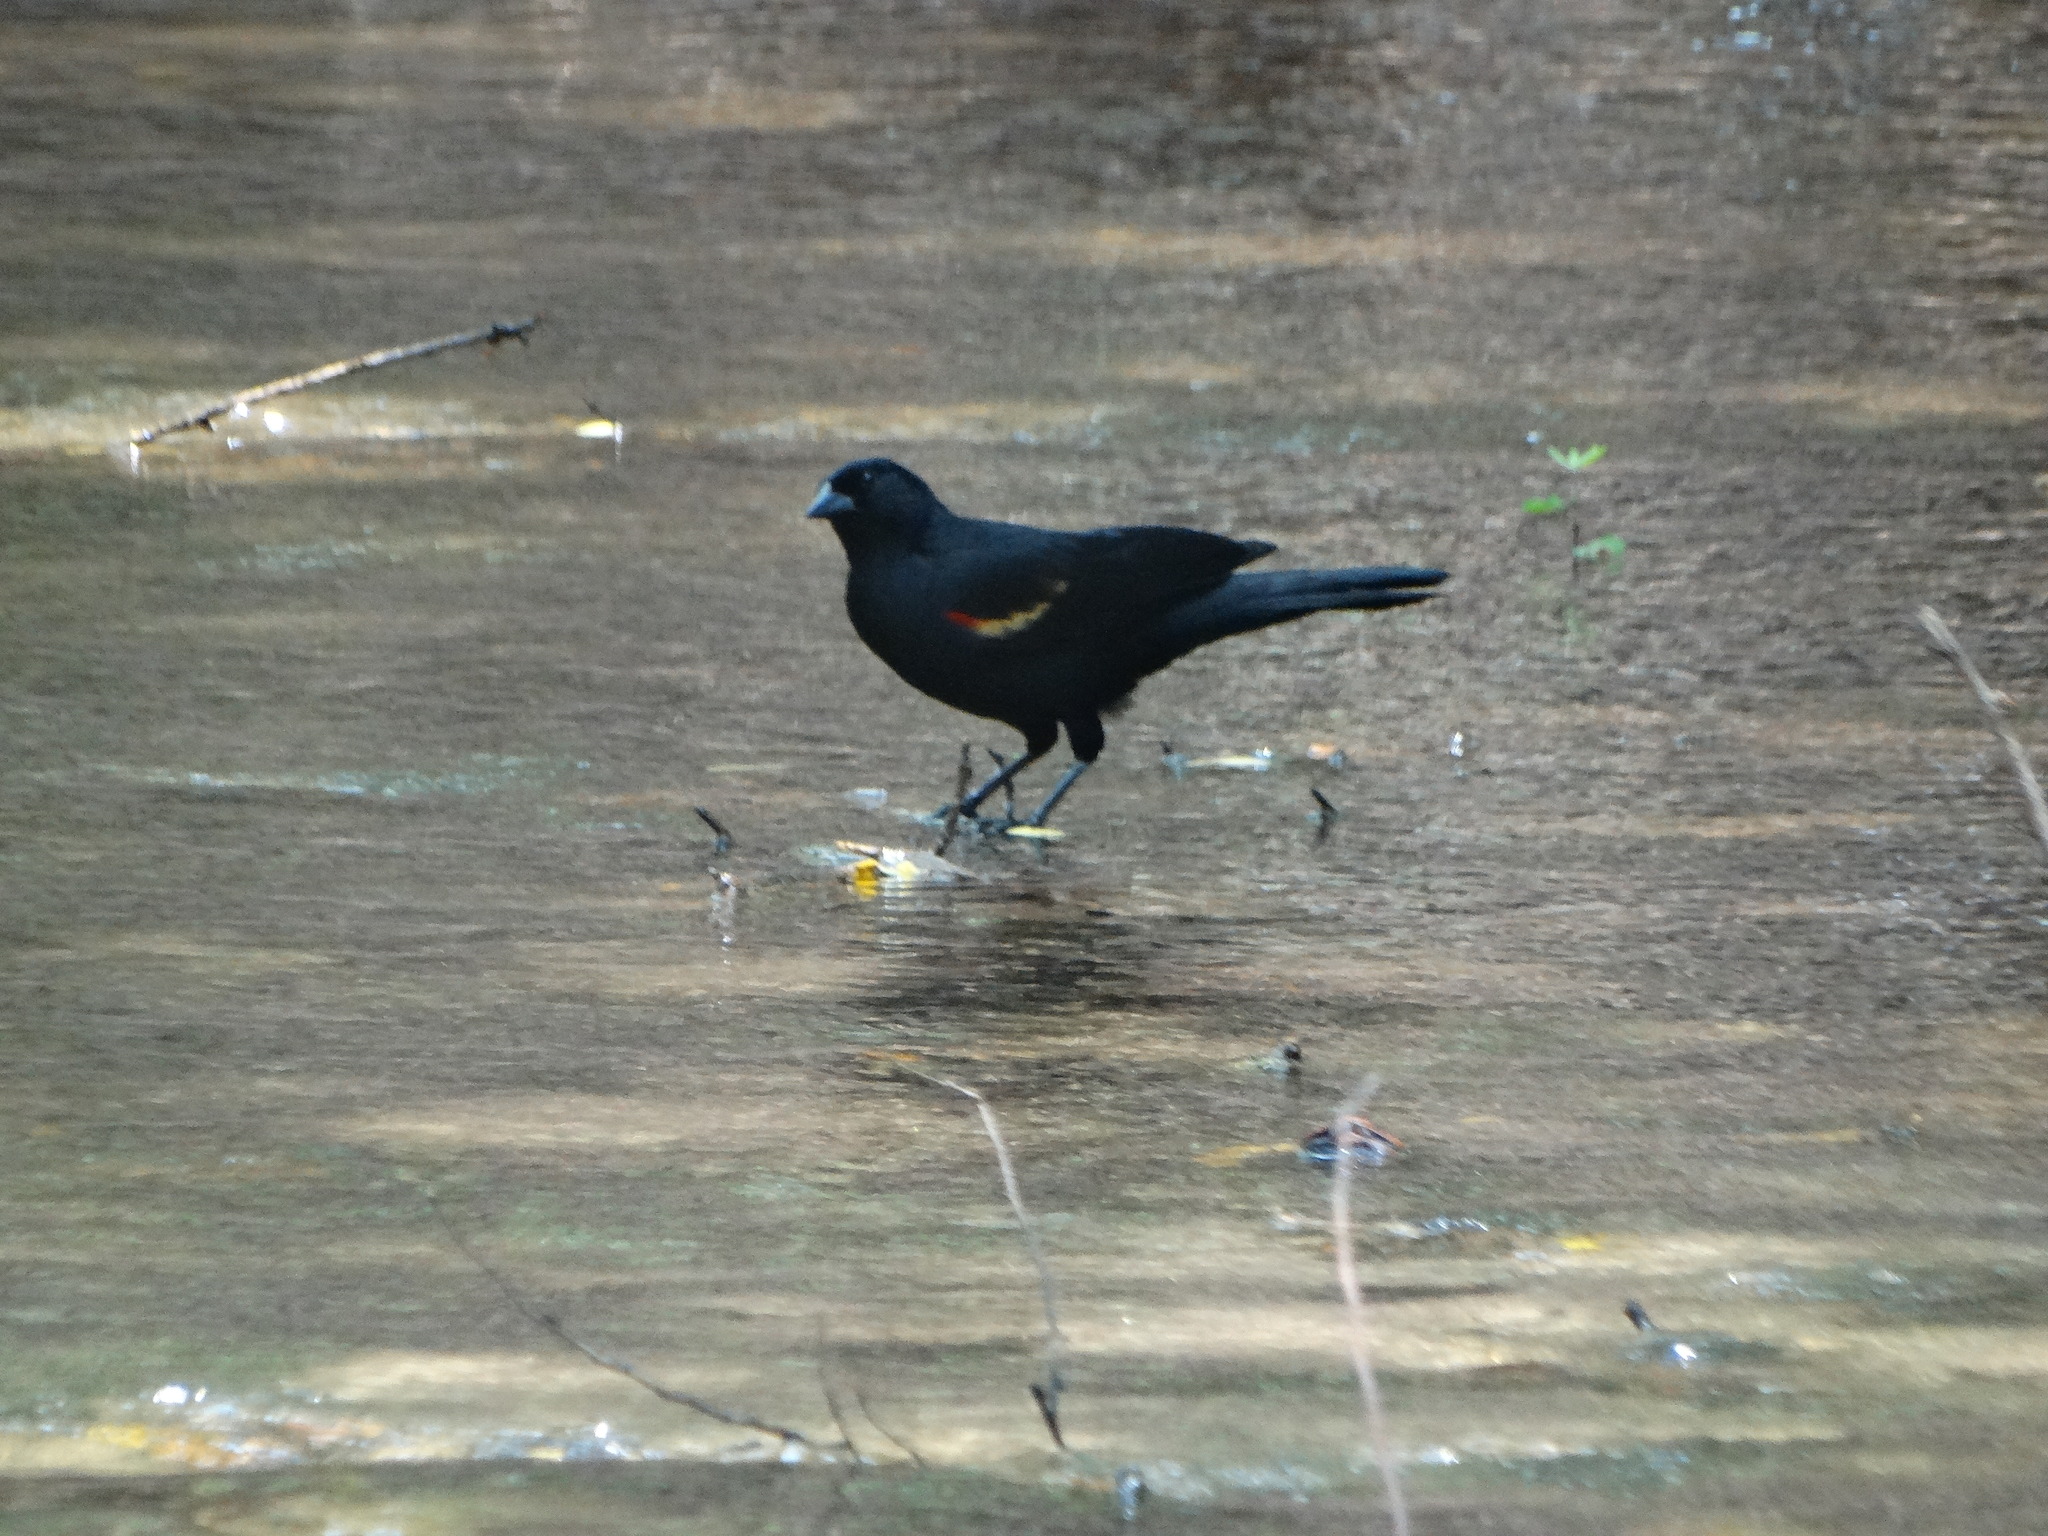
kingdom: Animalia
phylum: Chordata
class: Aves
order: Passeriformes
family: Icteridae
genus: Agelaius
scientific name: Agelaius phoeniceus
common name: Red-winged blackbird
